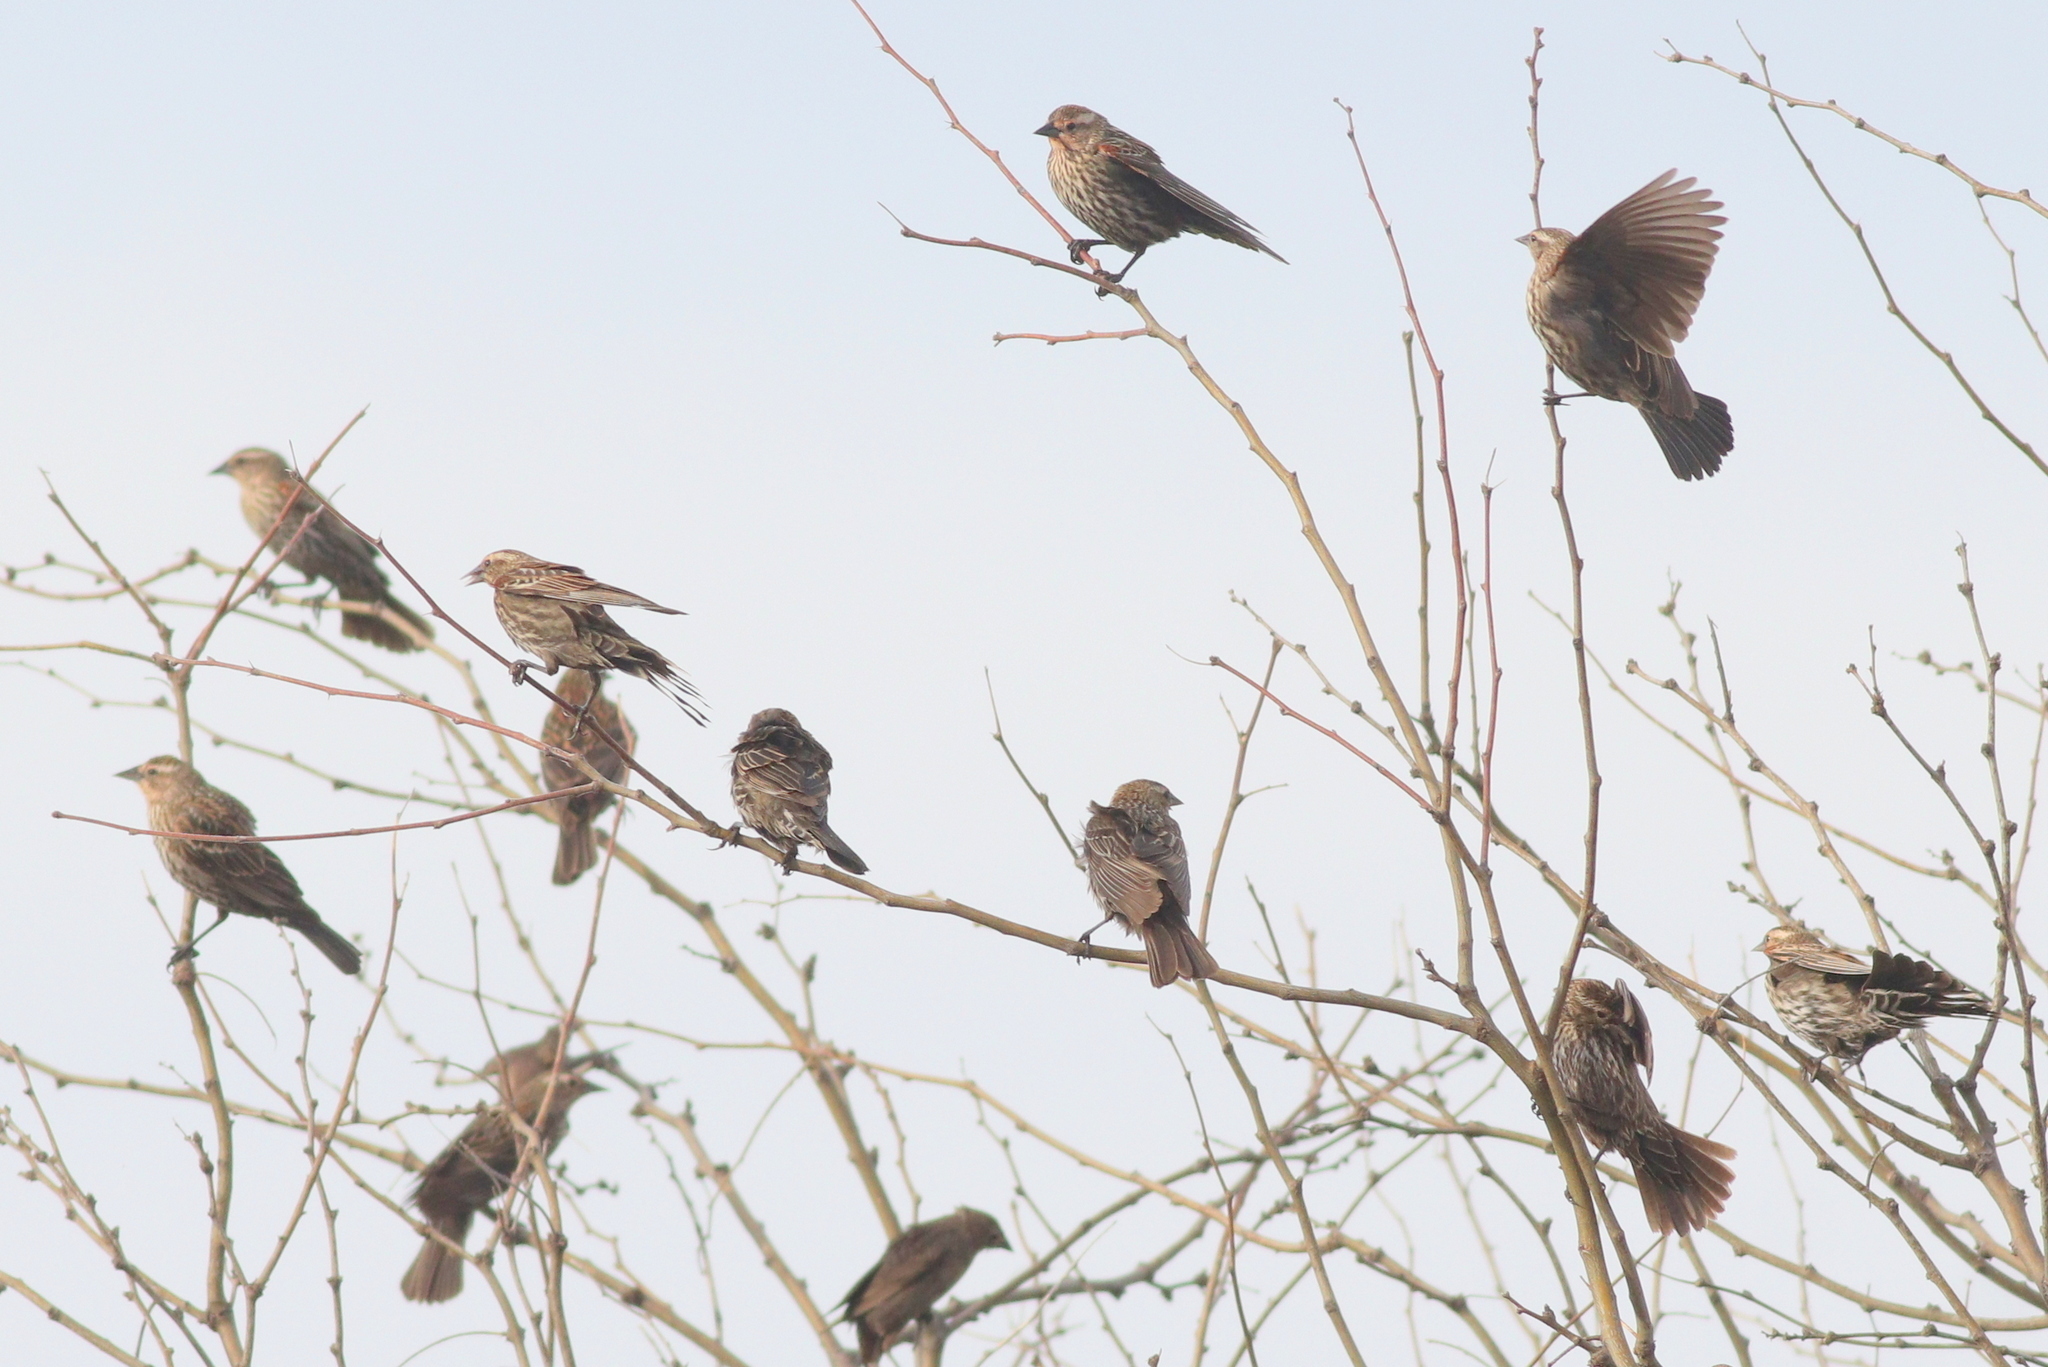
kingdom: Animalia
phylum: Chordata
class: Aves
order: Passeriformes
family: Icteridae
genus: Agelaius
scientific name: Agelaius phoeniceus
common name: Red-winged blackbird
